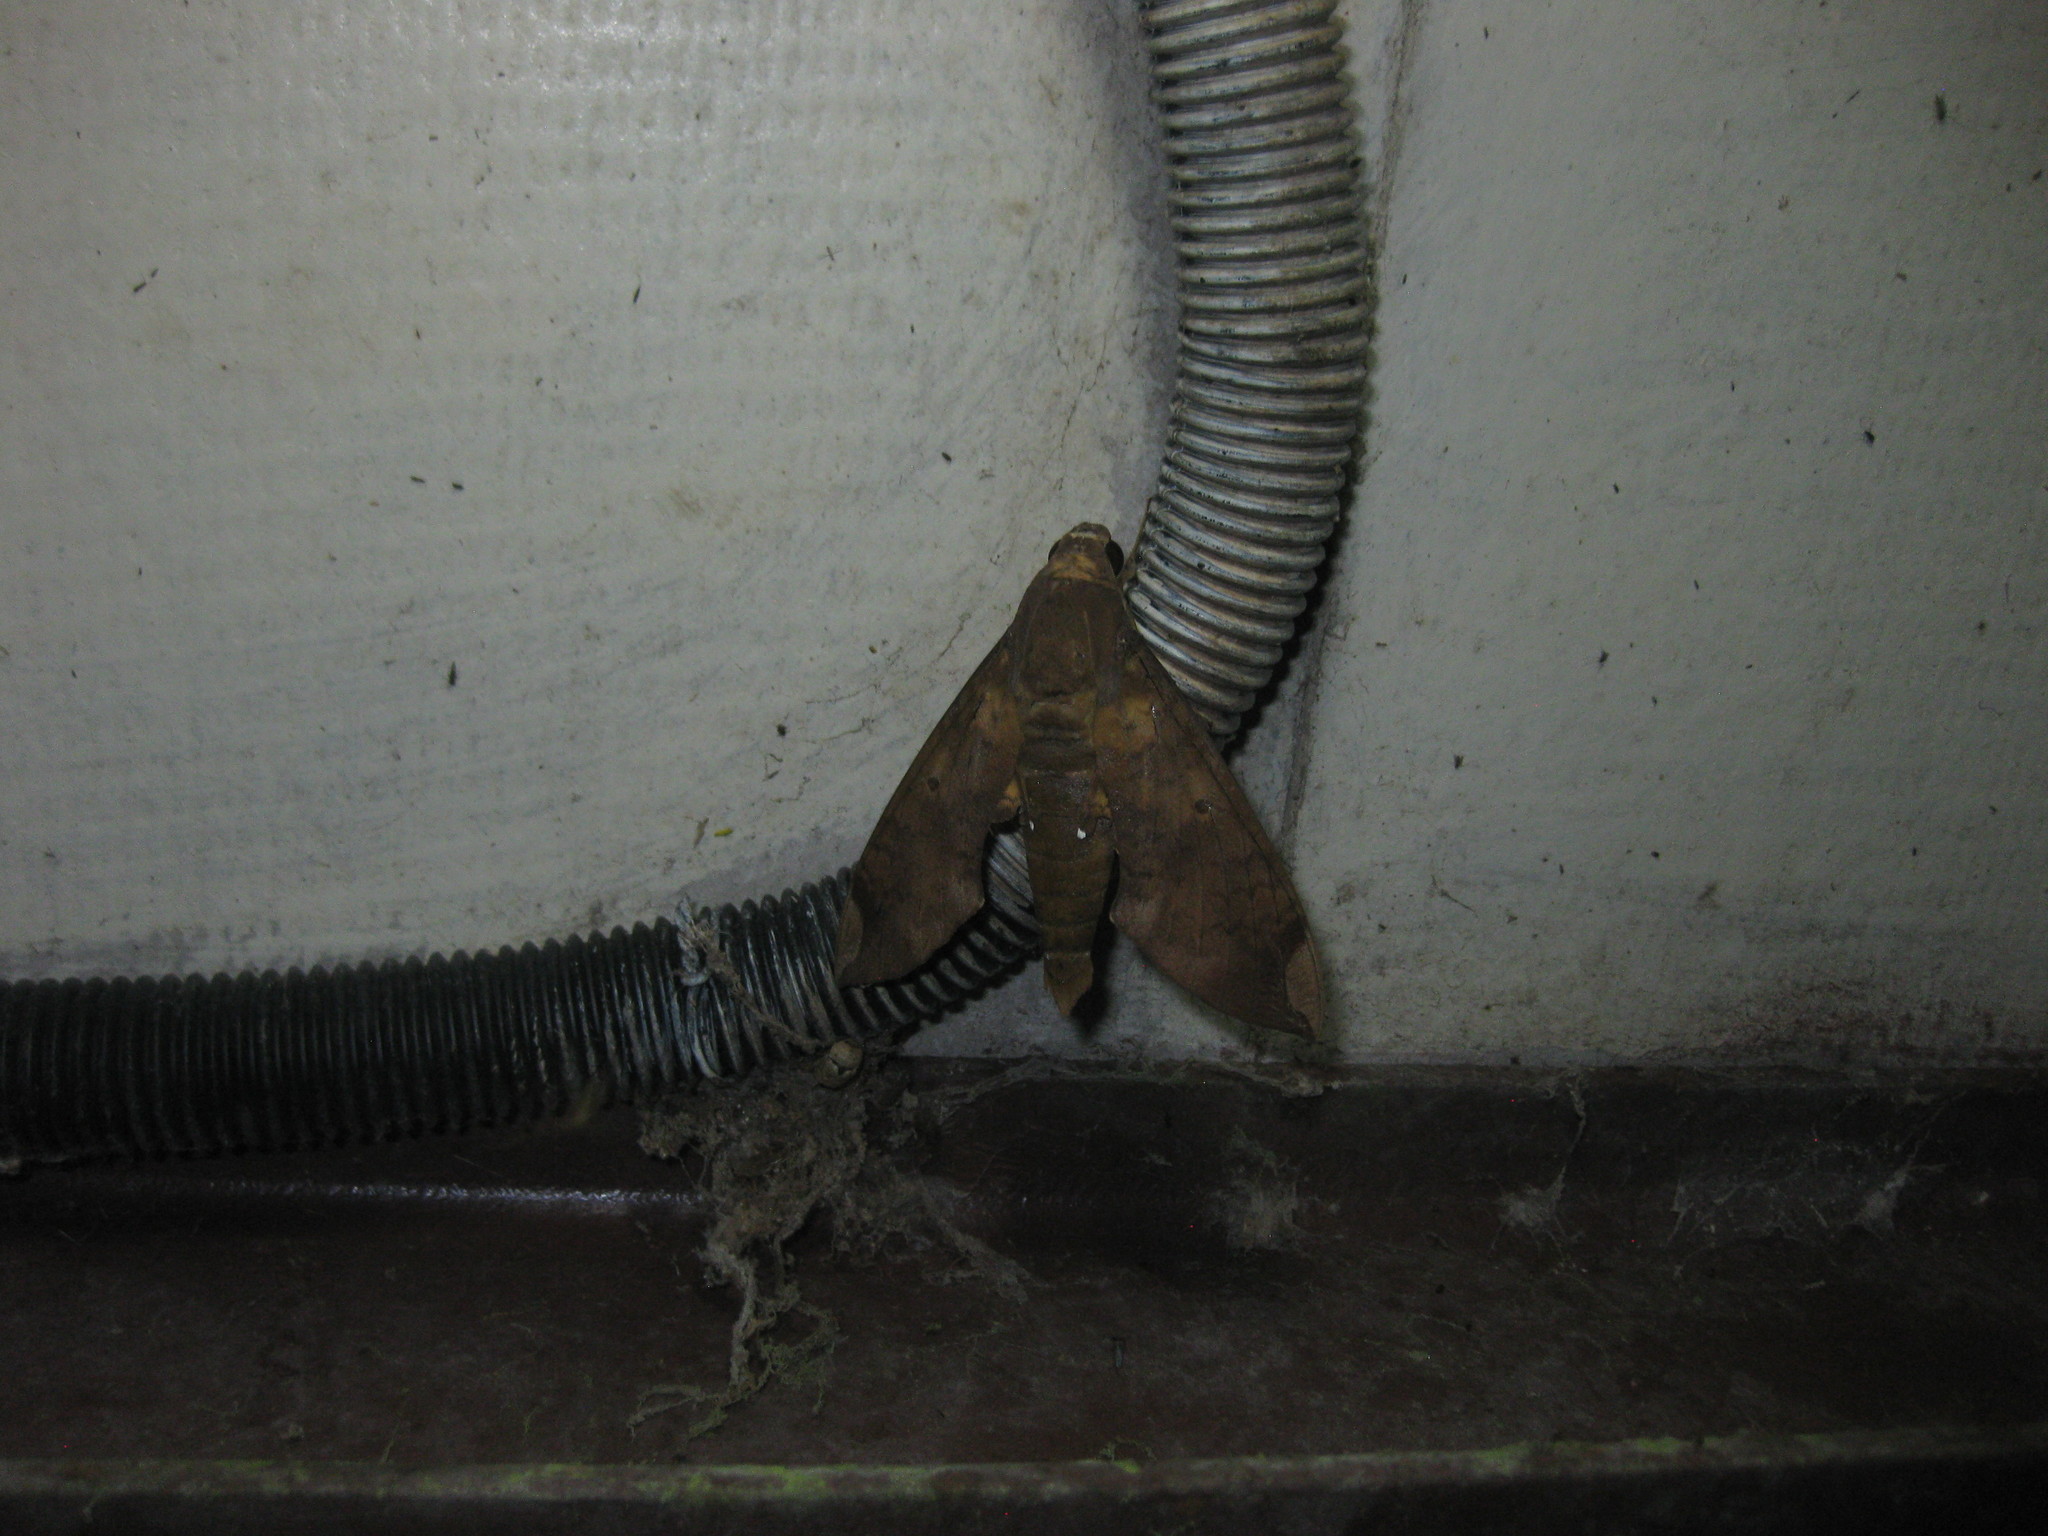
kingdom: Animalia
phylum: Arthropoda
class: Insecta
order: Lepidoptera
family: Sphingidae
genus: Pachylia
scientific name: Pachylia ficus
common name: Fig sphinx
